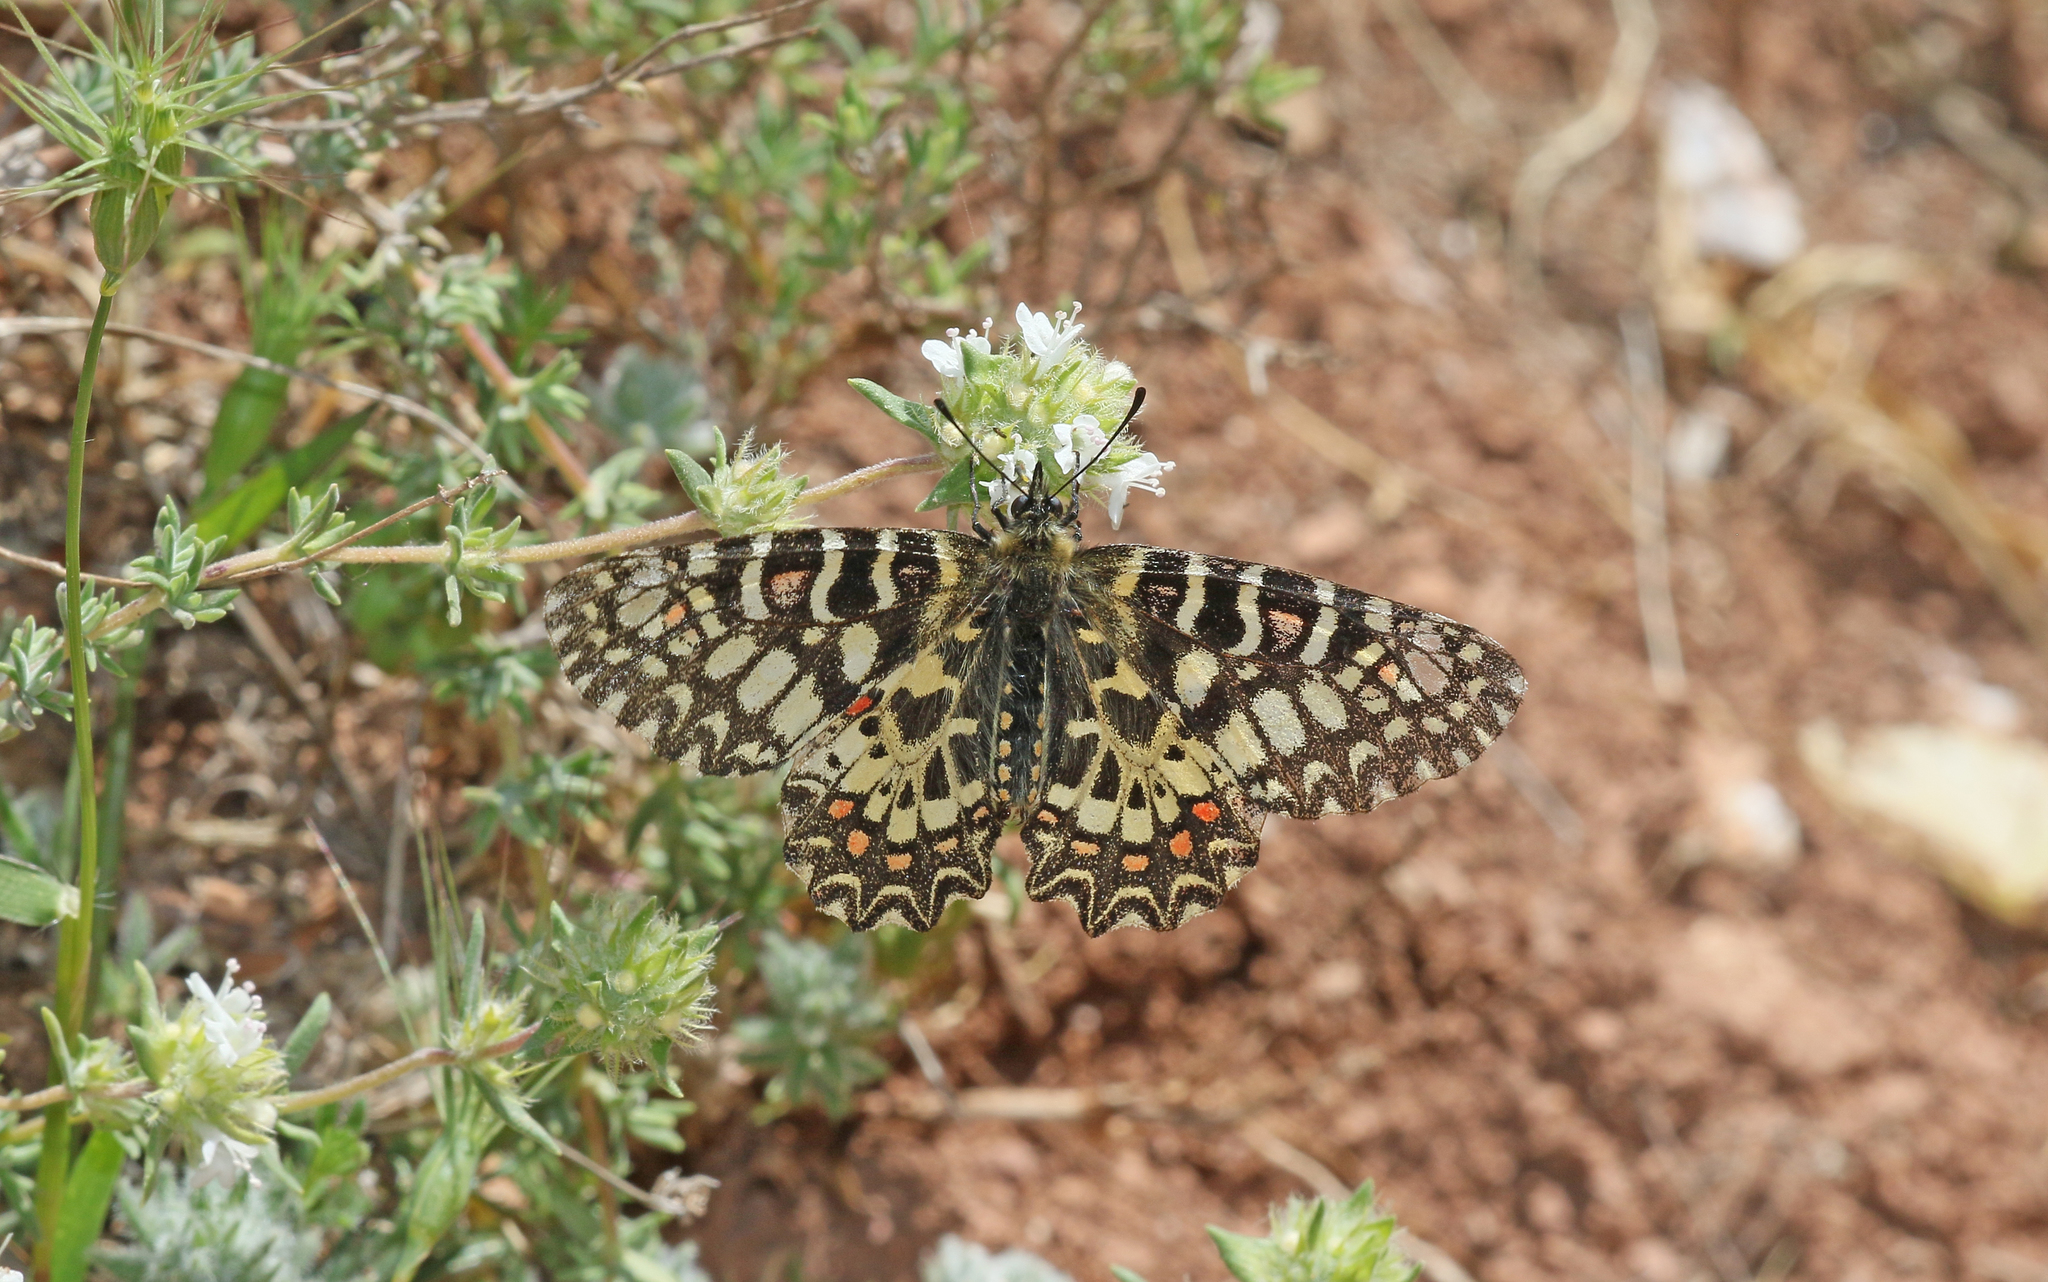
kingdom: Animalia
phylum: Arthropoda
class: Insecta
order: Lepidoptera
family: Papilionidae
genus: Zerynthia
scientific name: Zerynthia rumina
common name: Spanish festoon
